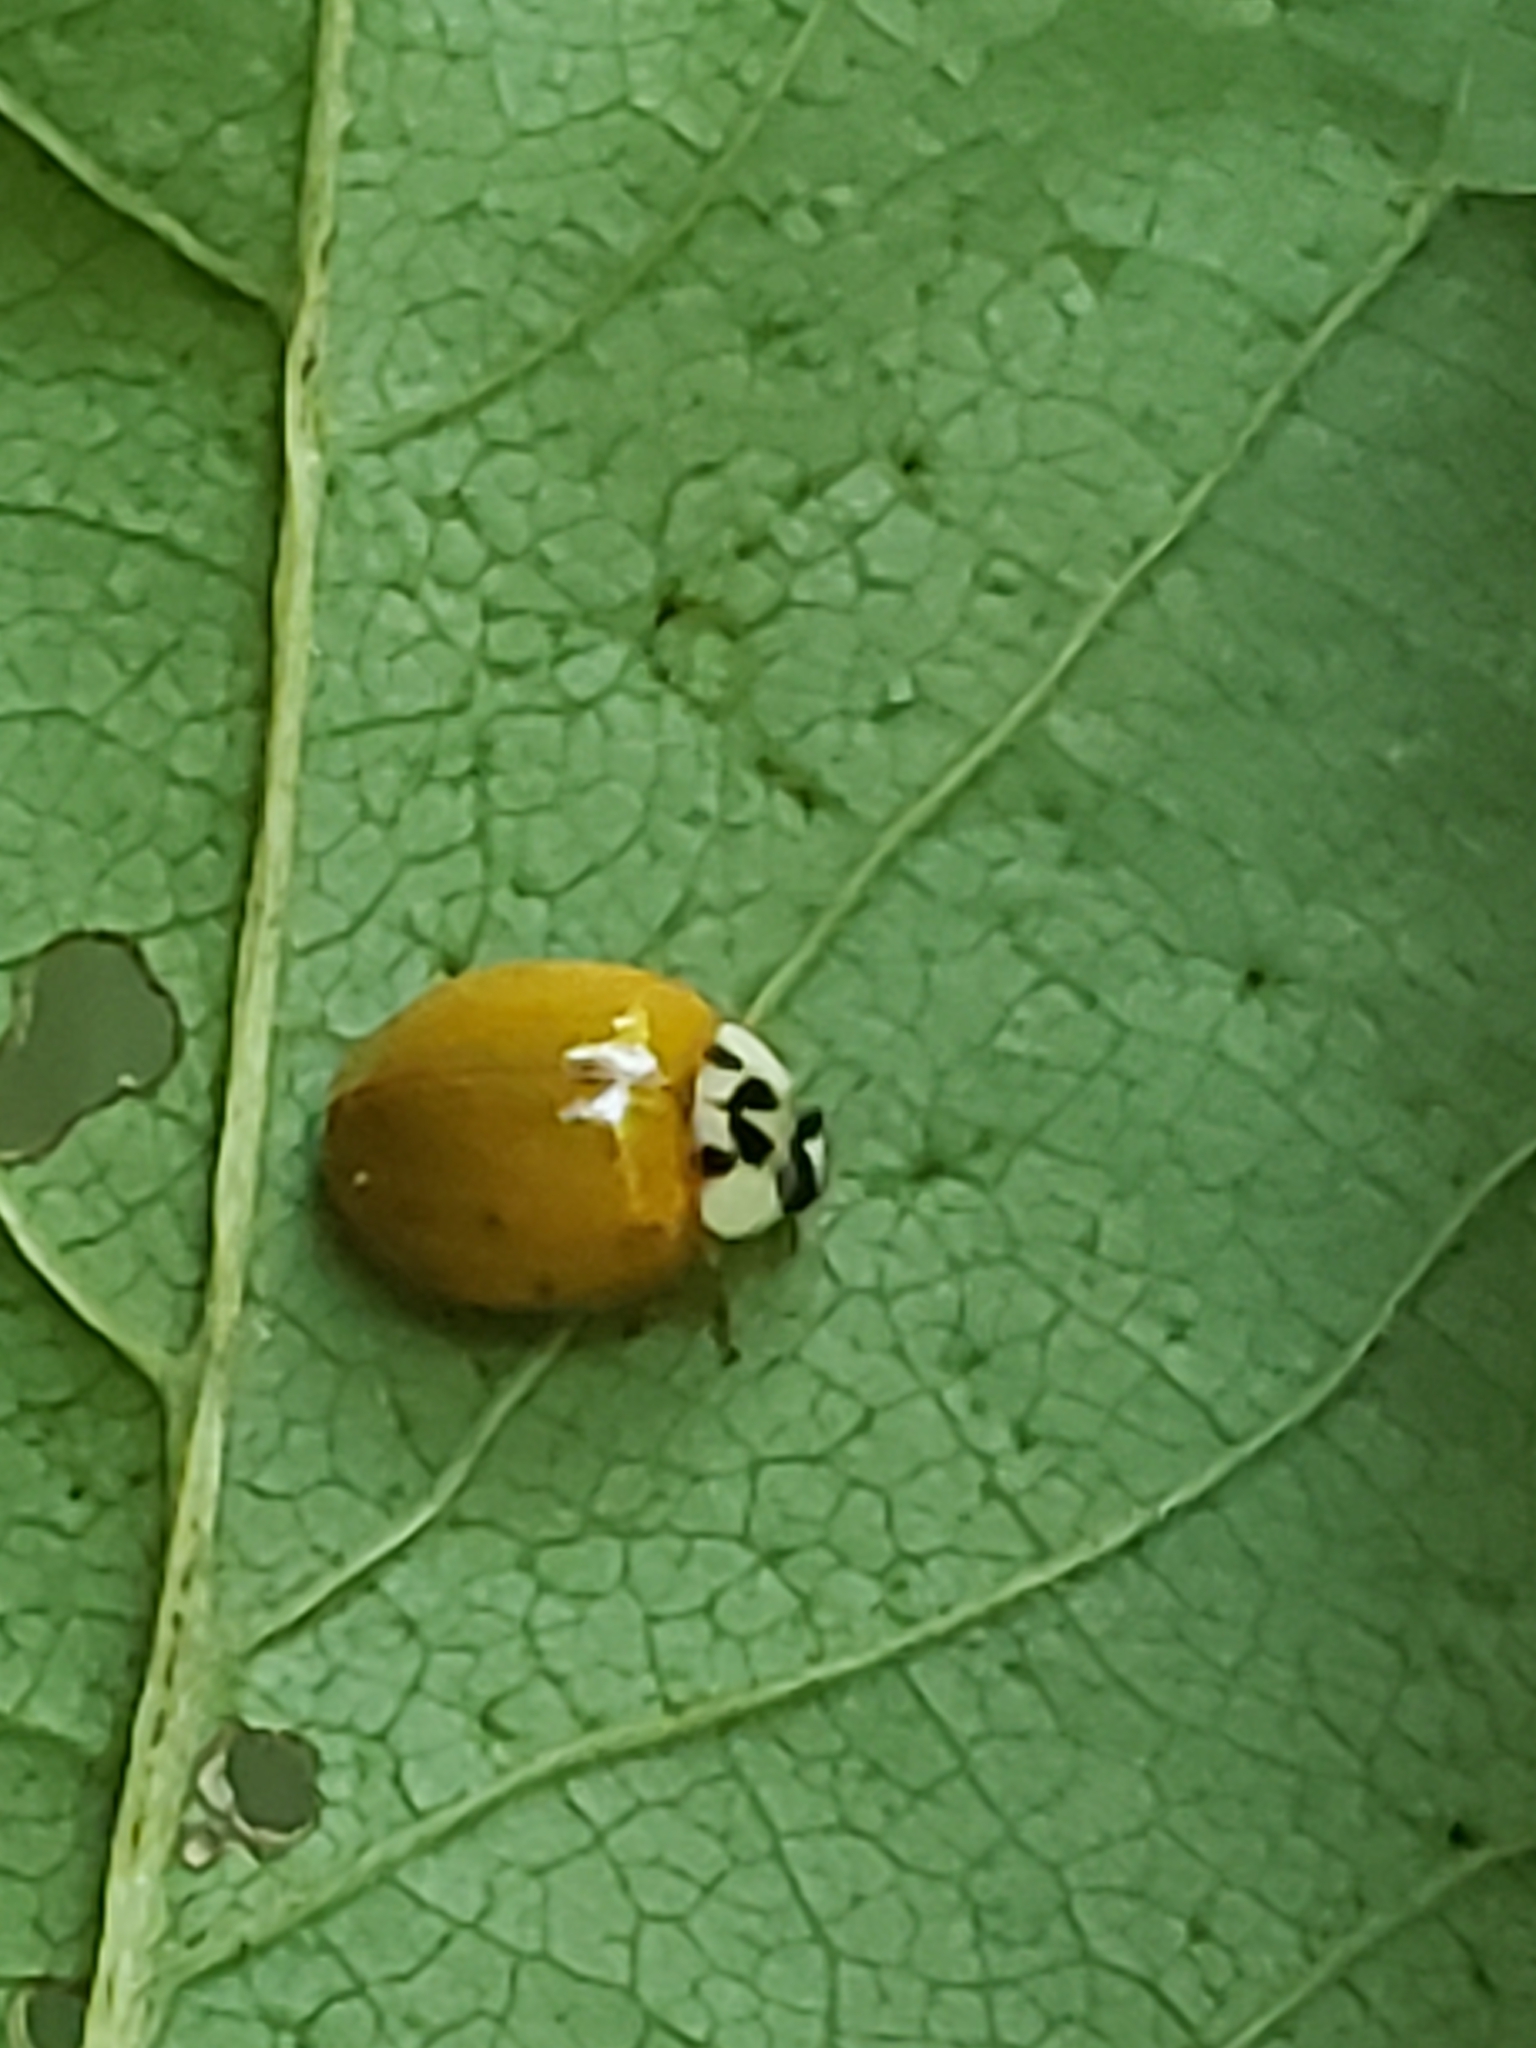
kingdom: Animalia
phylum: Arthropoda
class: Insecta
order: Coleoptera
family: Coccinellidae
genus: Harmonia
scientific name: Harmonia axyridis
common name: Harlequin ladybird
